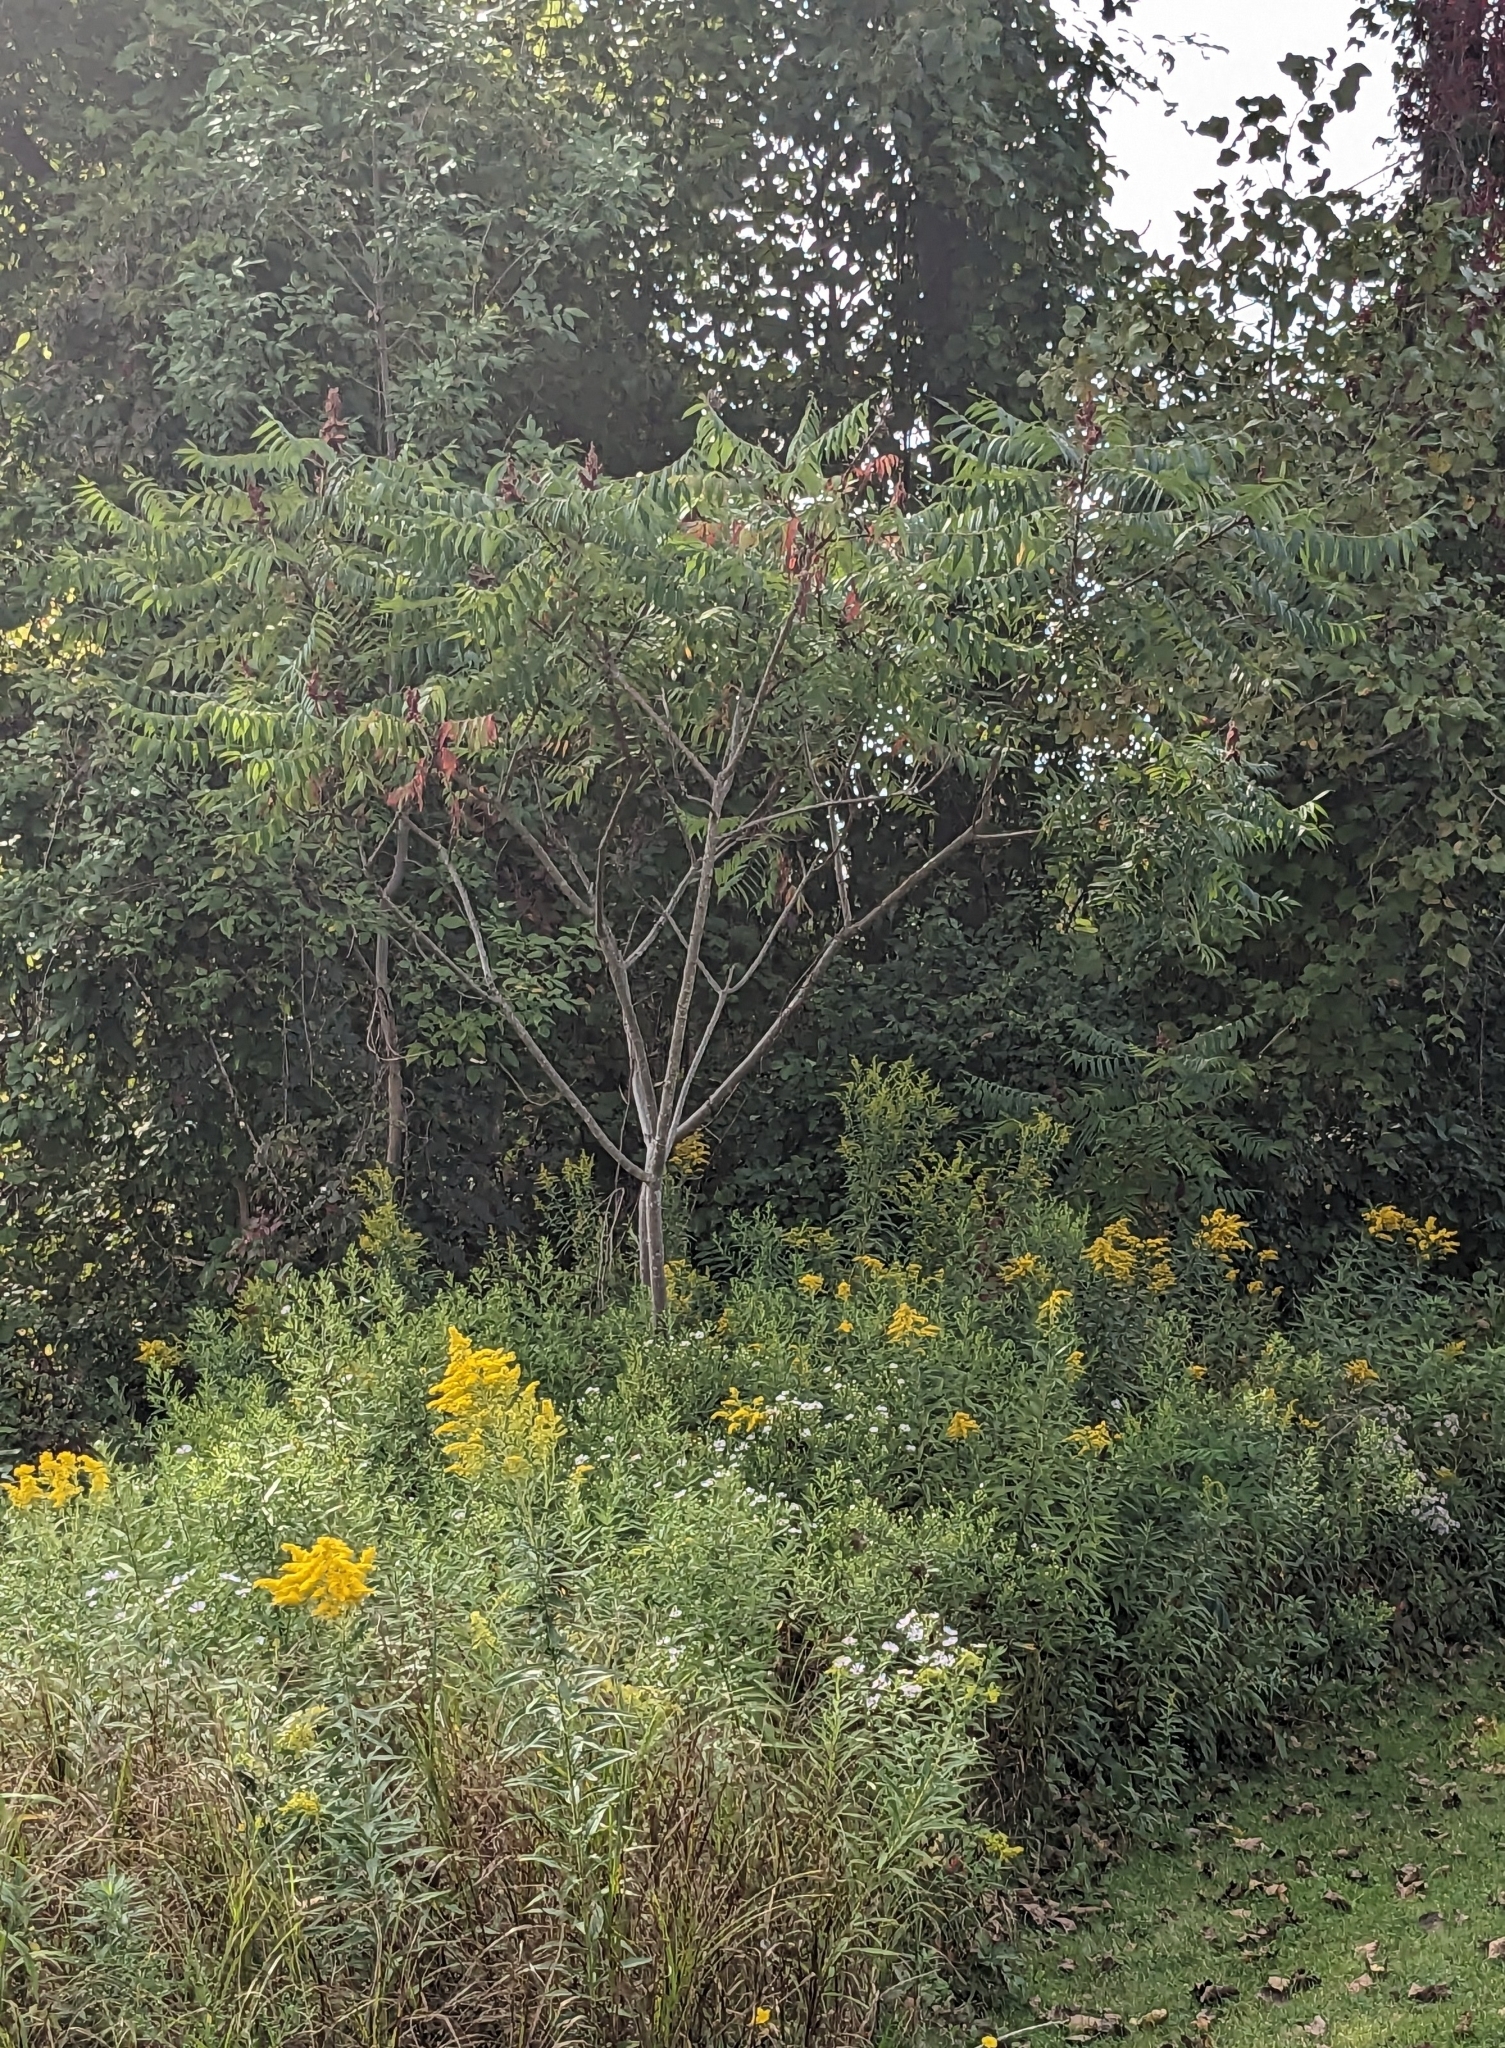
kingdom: Plantae
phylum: Tracheophyta
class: Magnoliopsida
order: Sapindales
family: Anacardiaceae
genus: Rhus
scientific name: Rhus typhina
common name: Staghorn sumac
